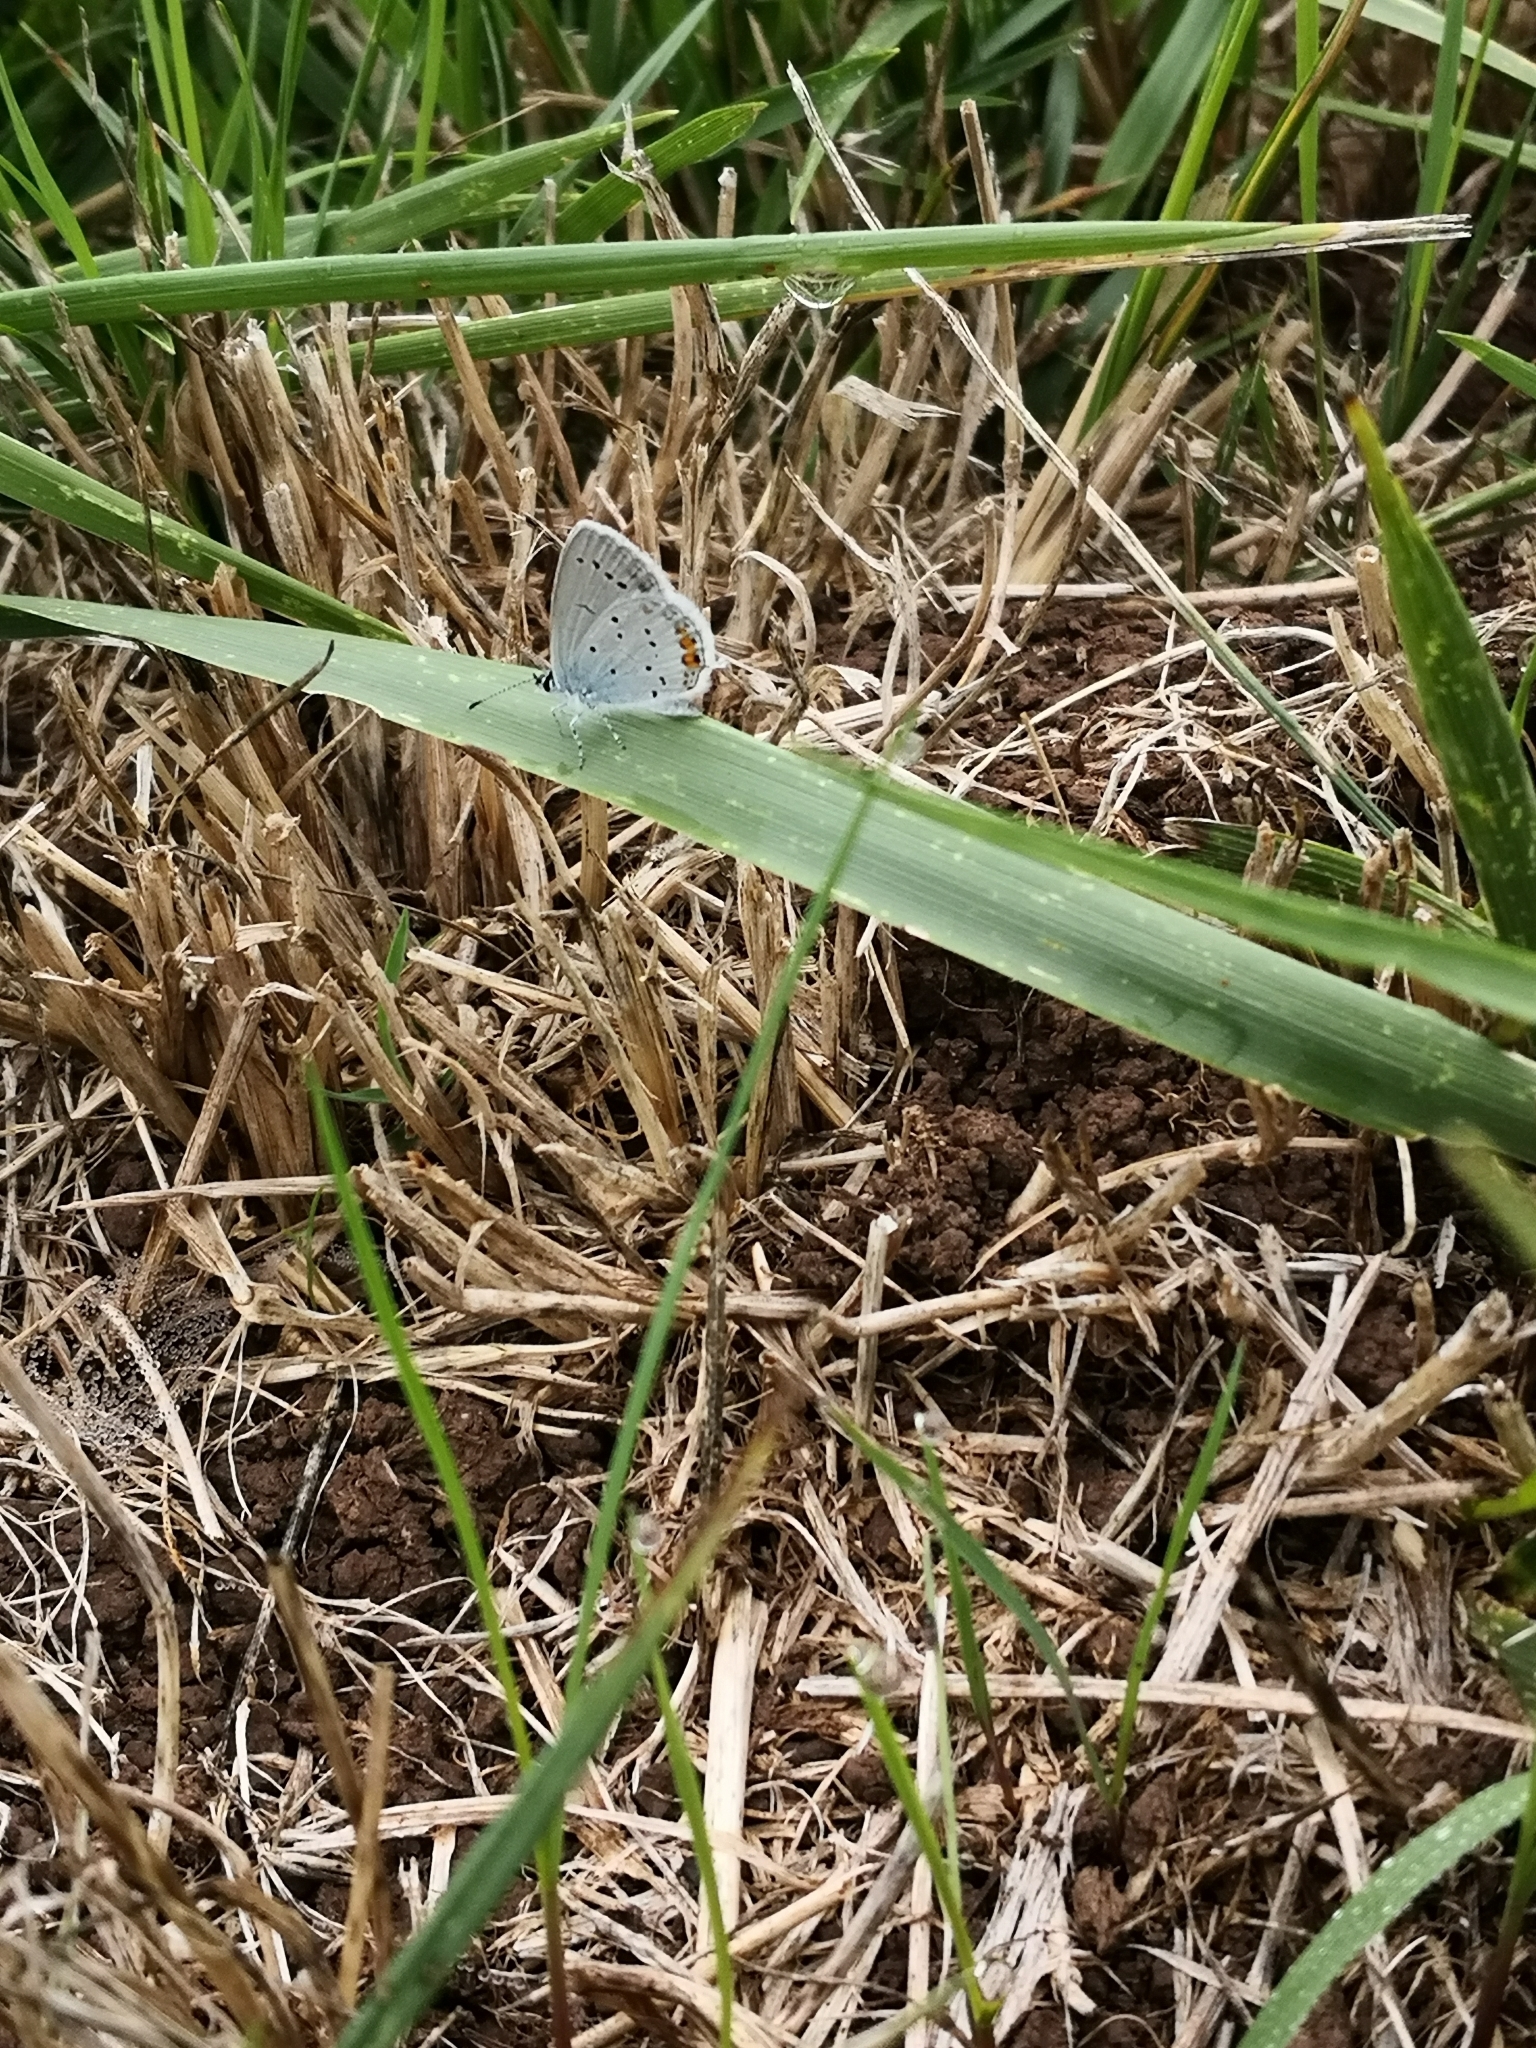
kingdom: Animalia
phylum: Arthropoda
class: Insecta
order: Lepidoptera
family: Lycaenidae
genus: Elkalyce
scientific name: Elkalyce argiades
